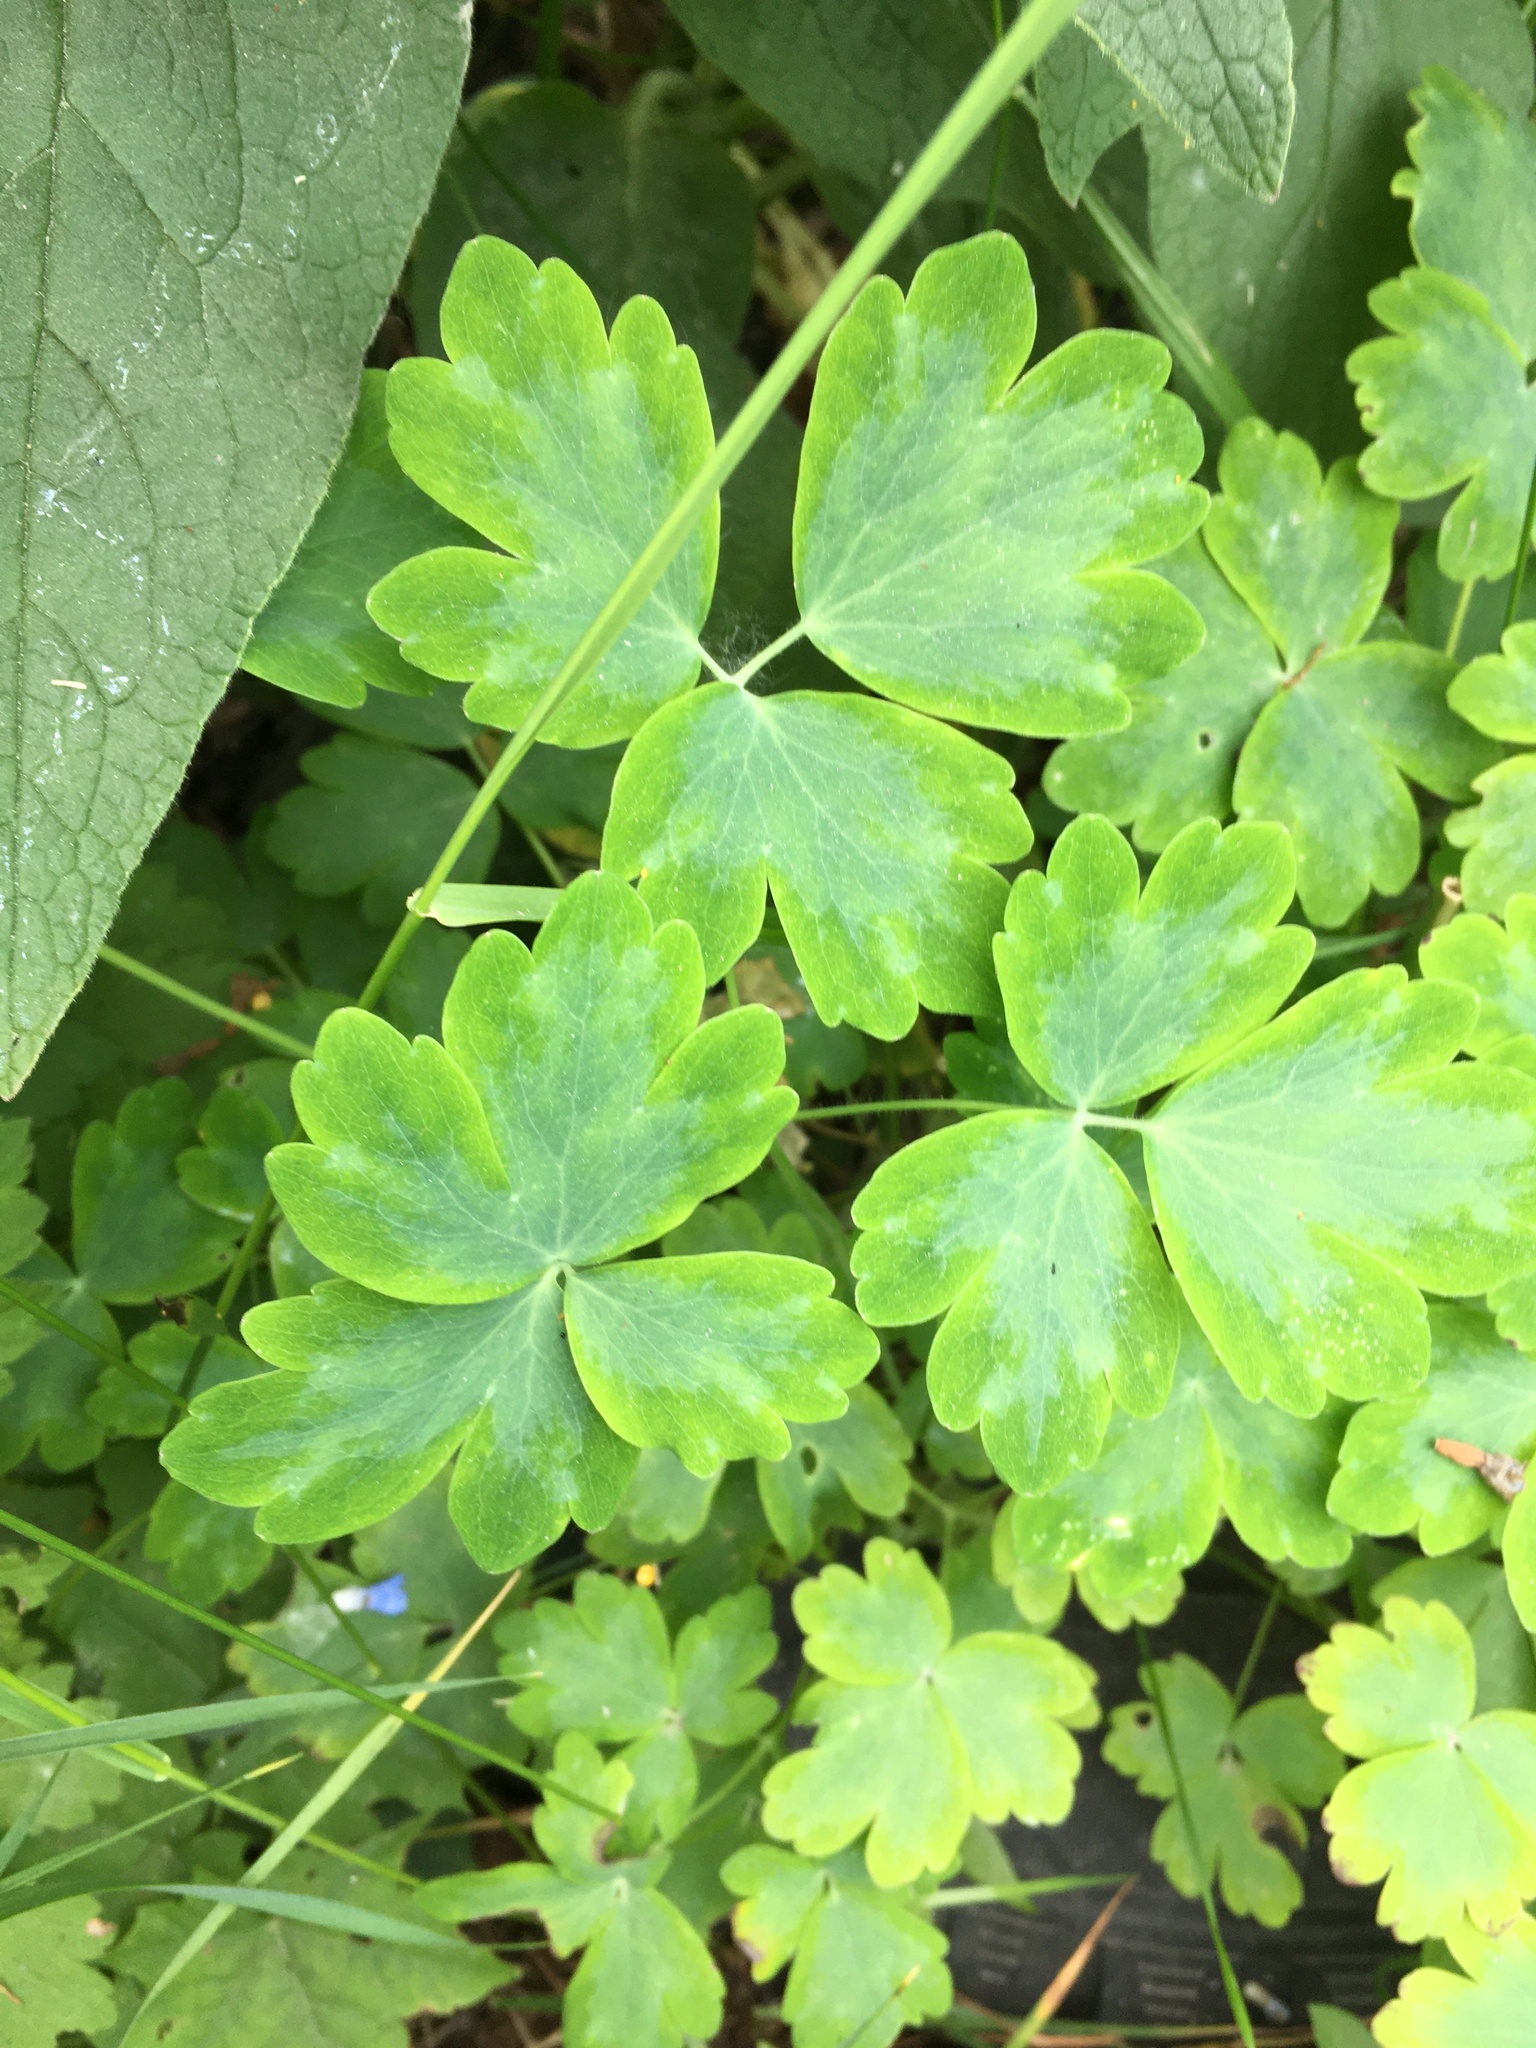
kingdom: Plantae
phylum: Tracheophyta
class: Magnoliopsida
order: Ranunculales
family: Ranunculaceae
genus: Aquilegia
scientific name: Aquilegia vulgaris
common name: Columbine
